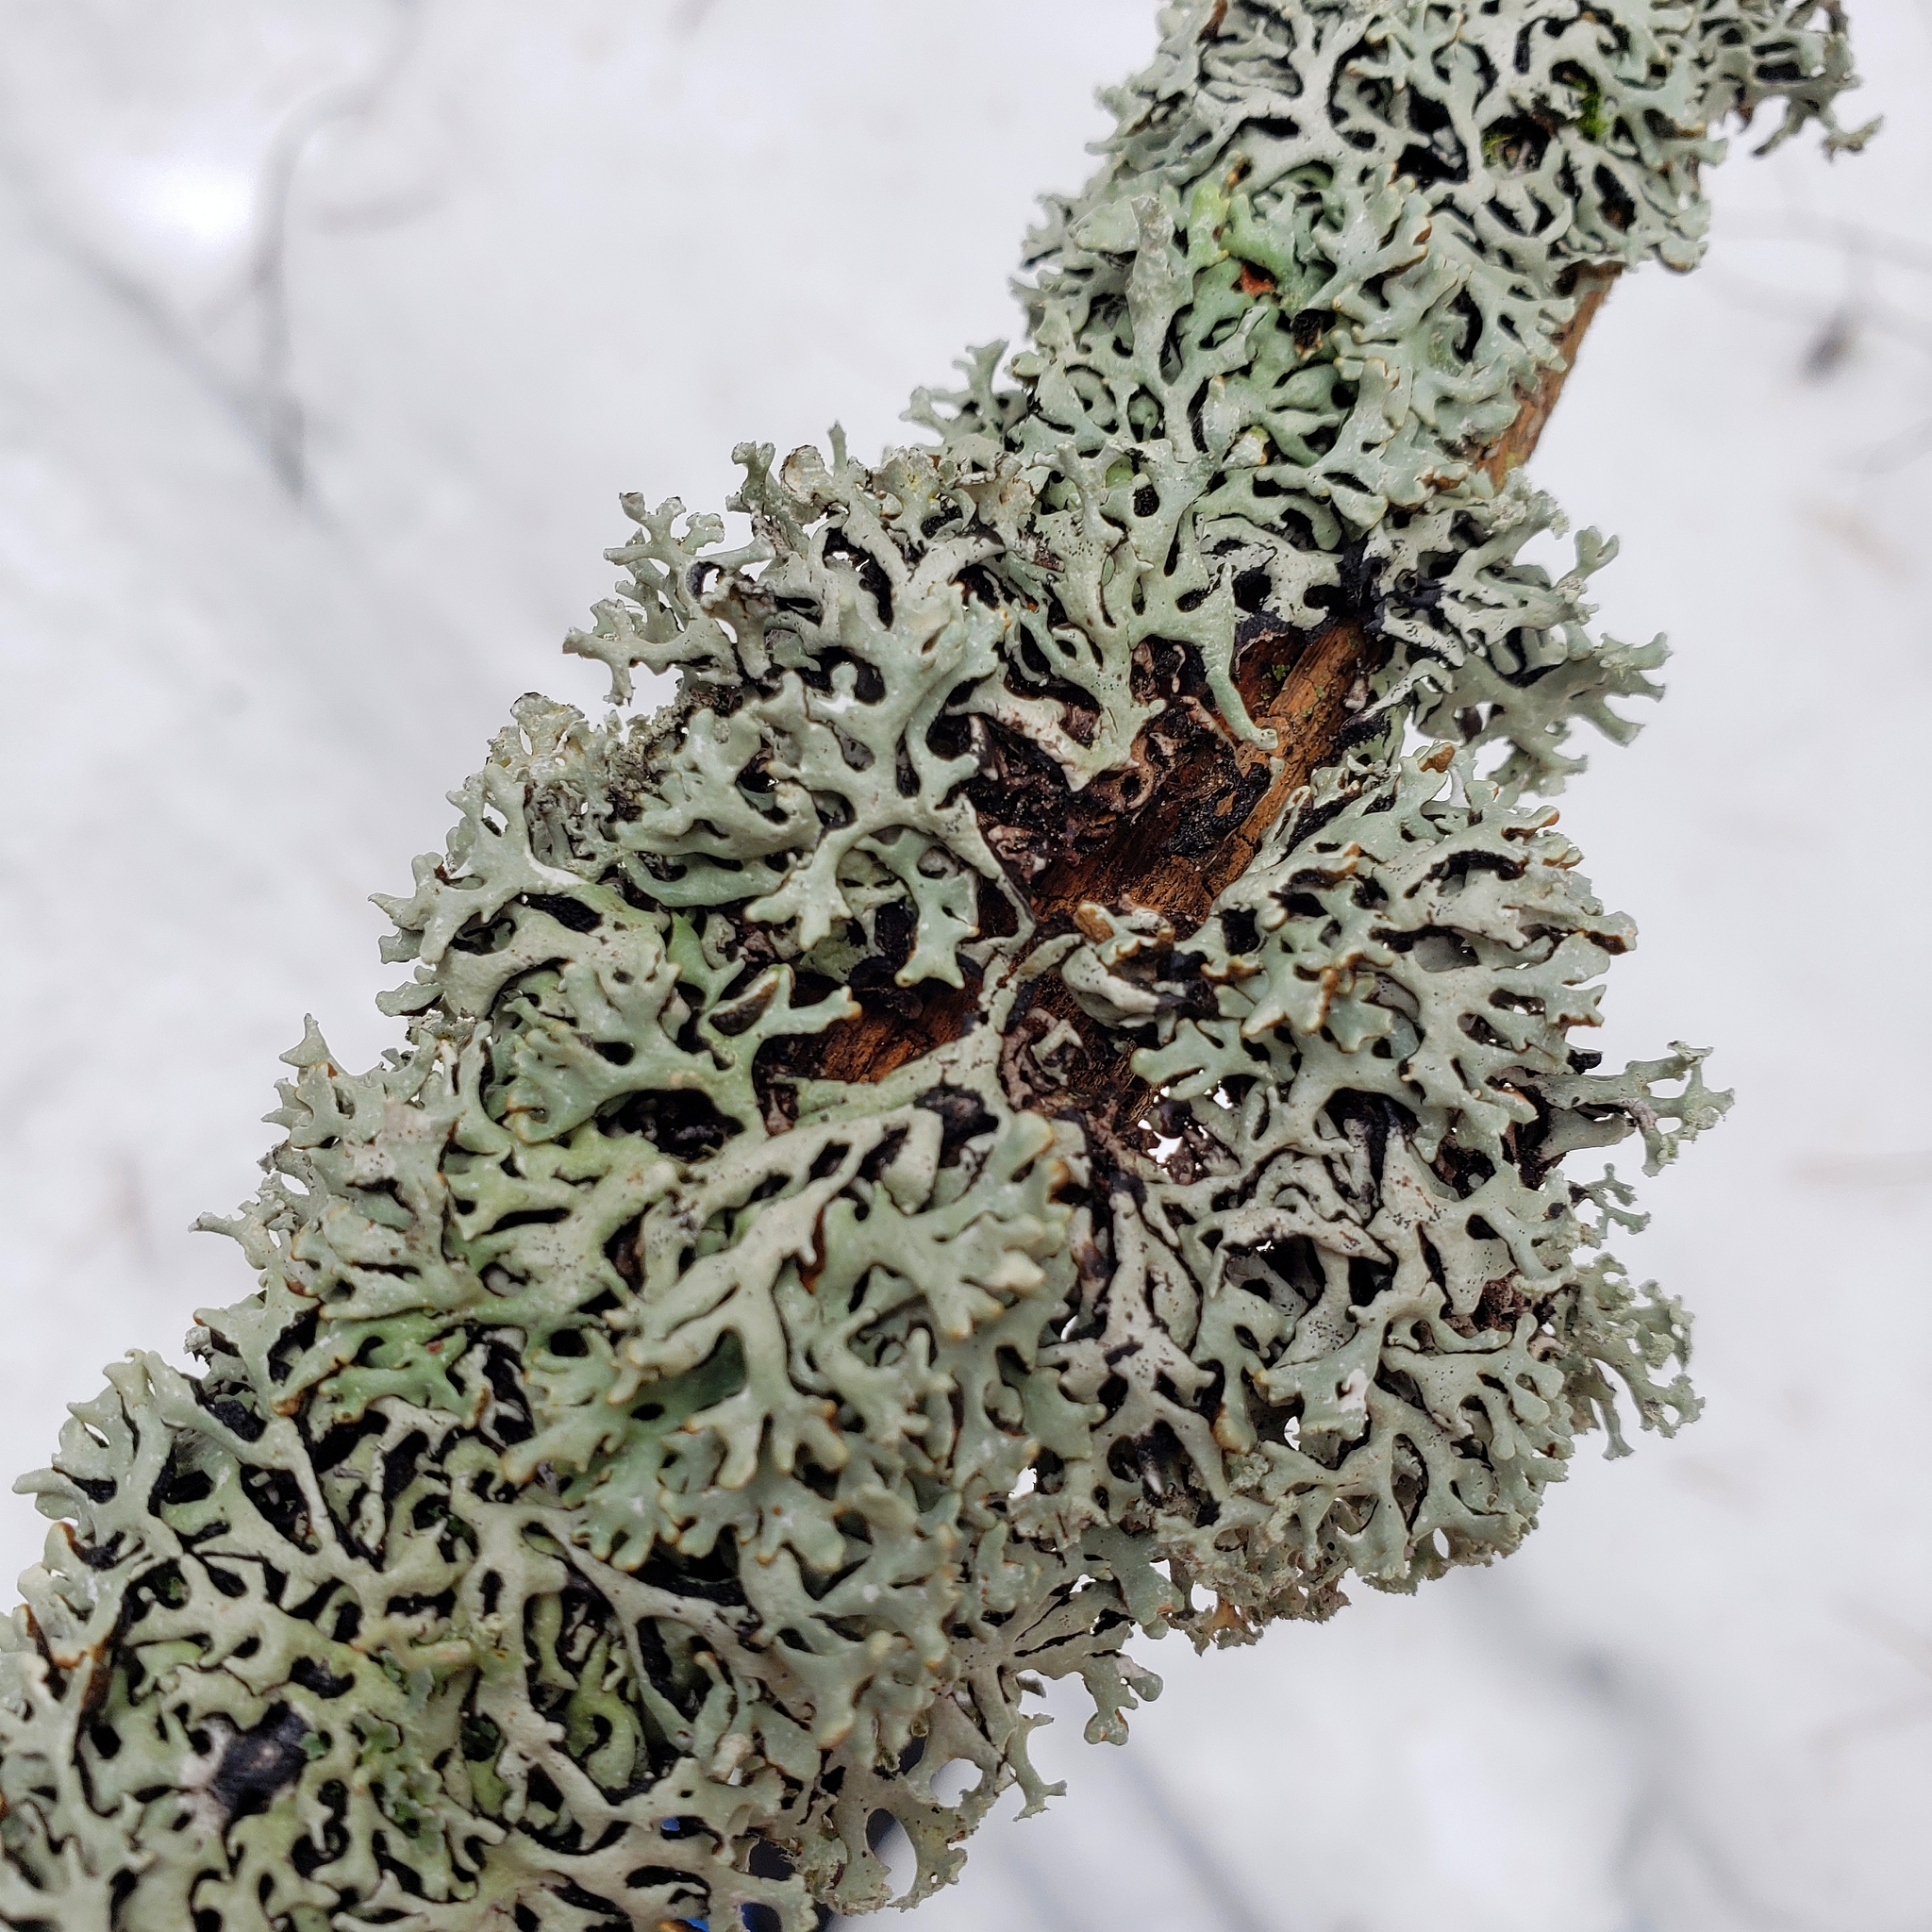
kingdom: Fungi
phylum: Ascomycota
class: Lecanoromycetes
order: Lecanorales
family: Parmeliaceae
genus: Hypogymnia
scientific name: Hypogymnia incurvoides
